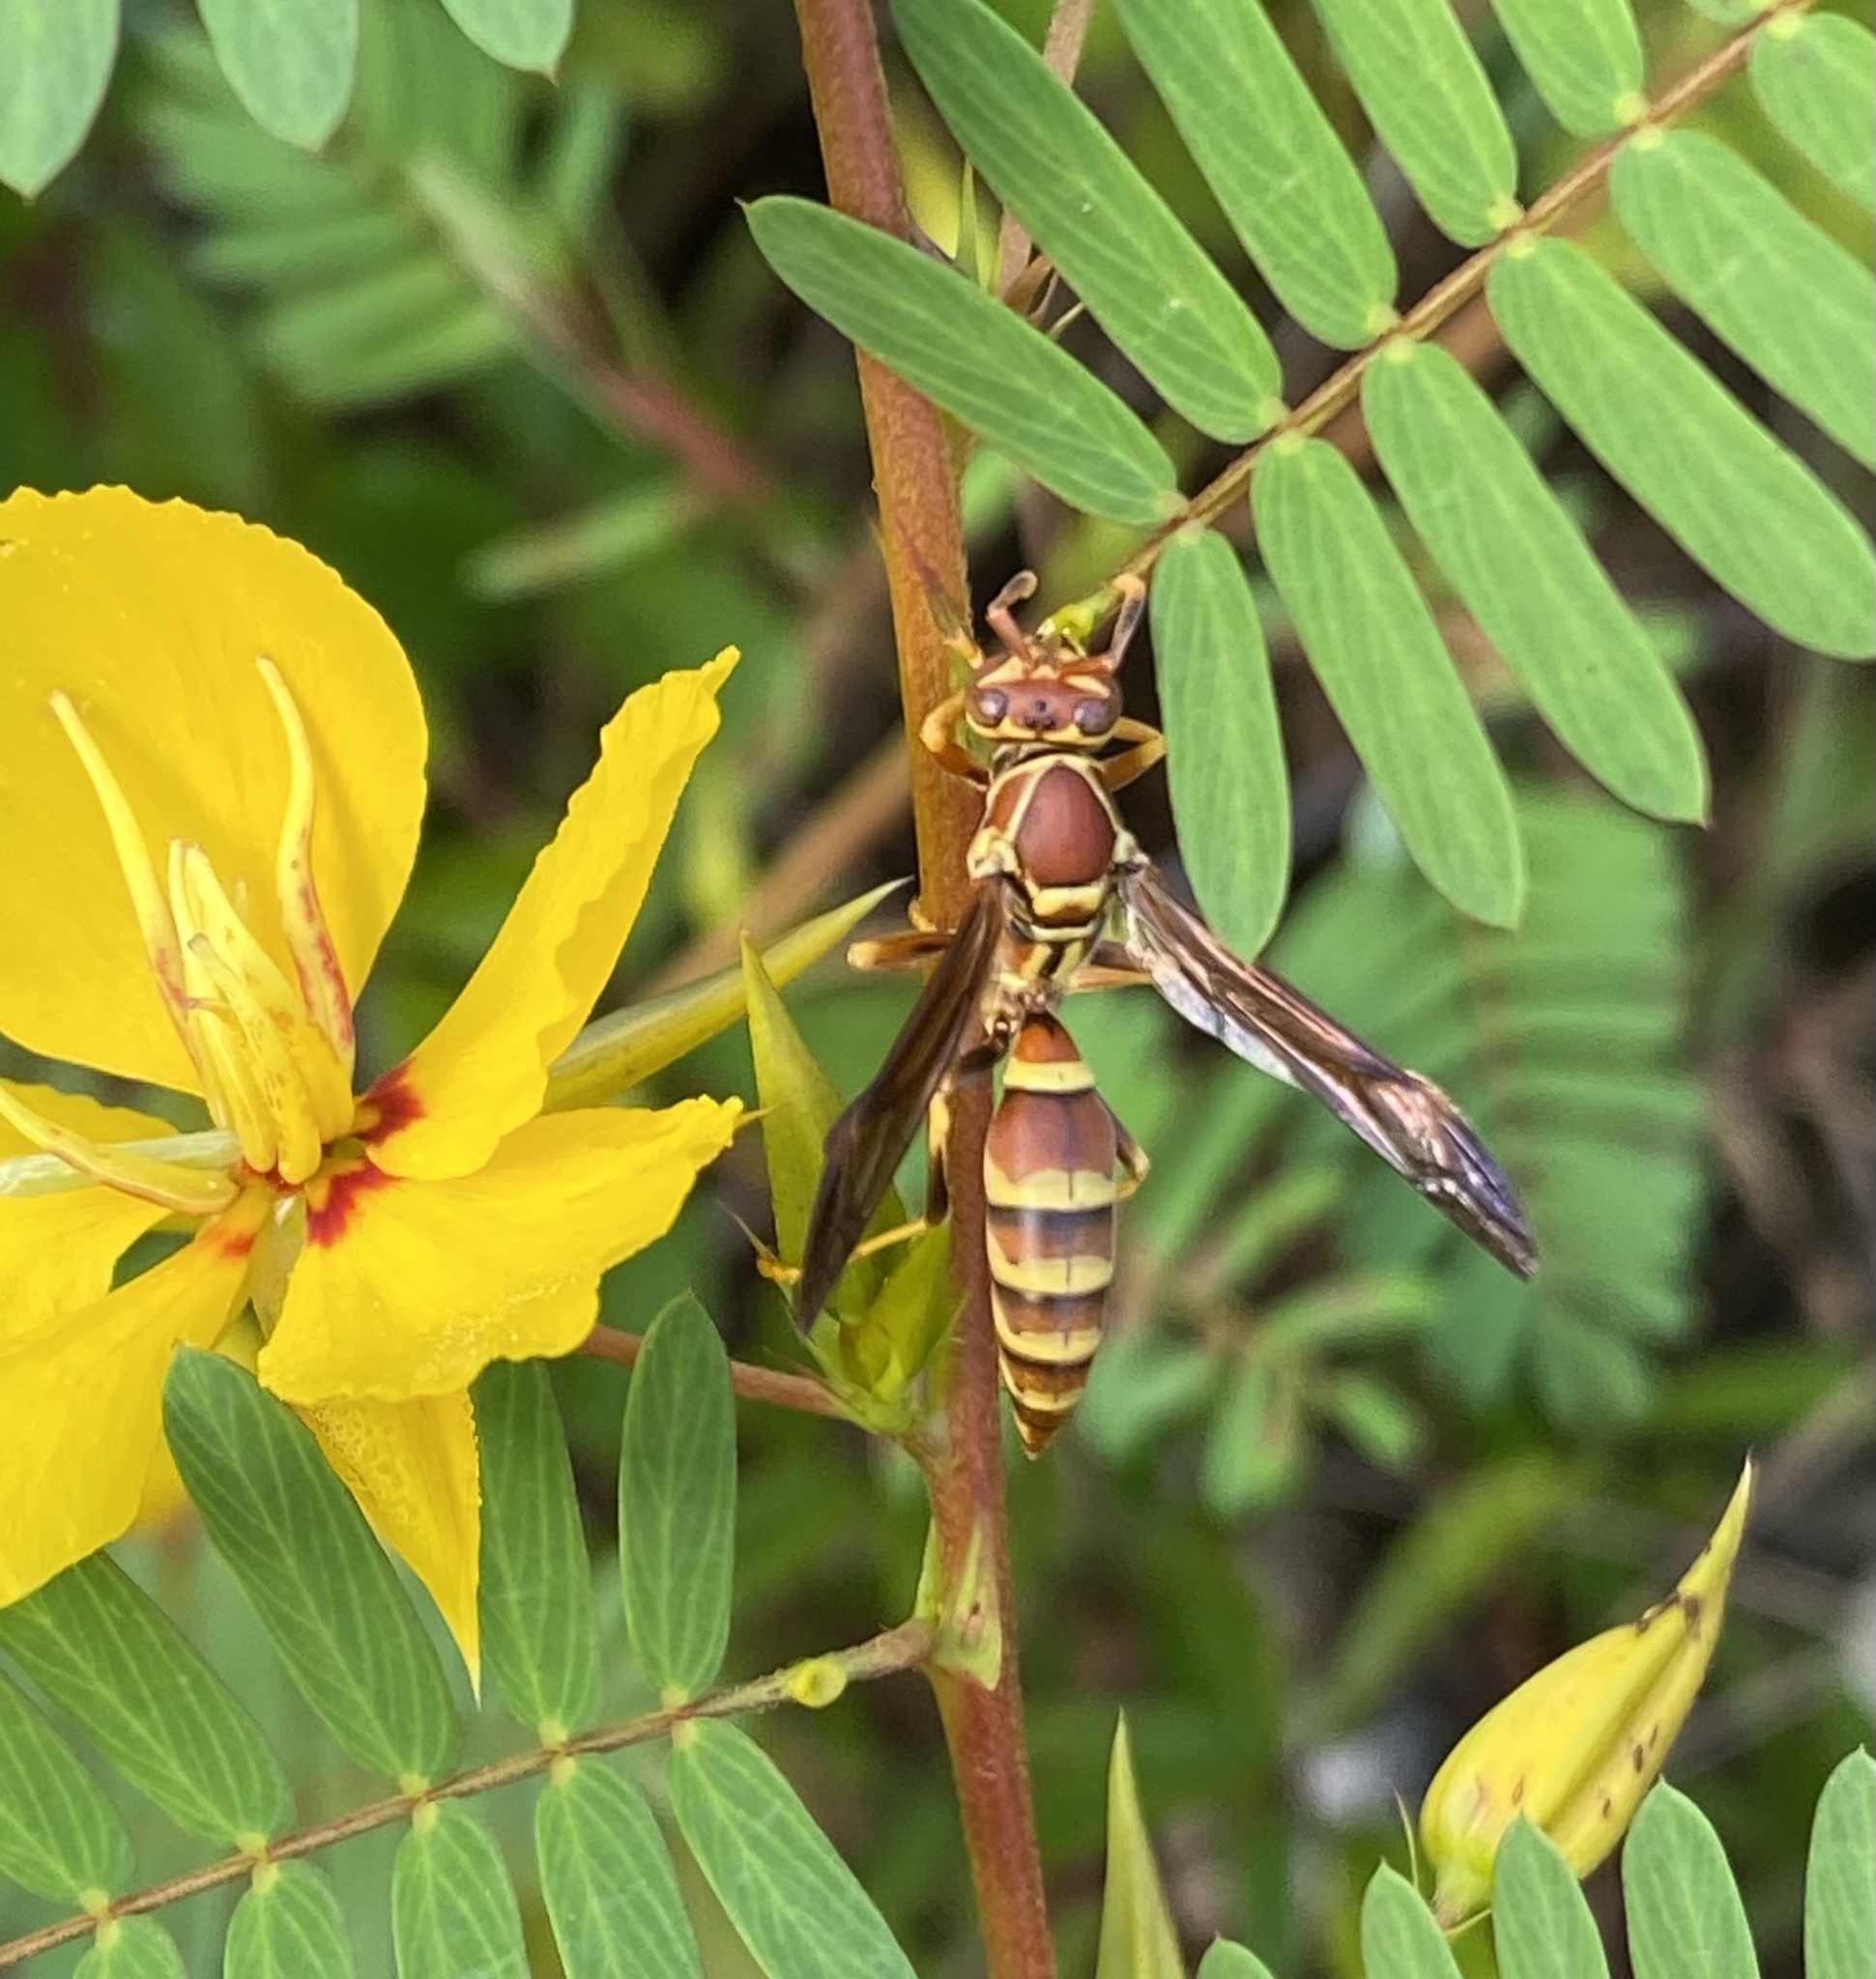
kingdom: Animalia
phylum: Arthropoda
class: Insecta
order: Hymenoptera
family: Eumenidae
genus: Polistes
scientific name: Polistes exclamans
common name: Paper wasp
